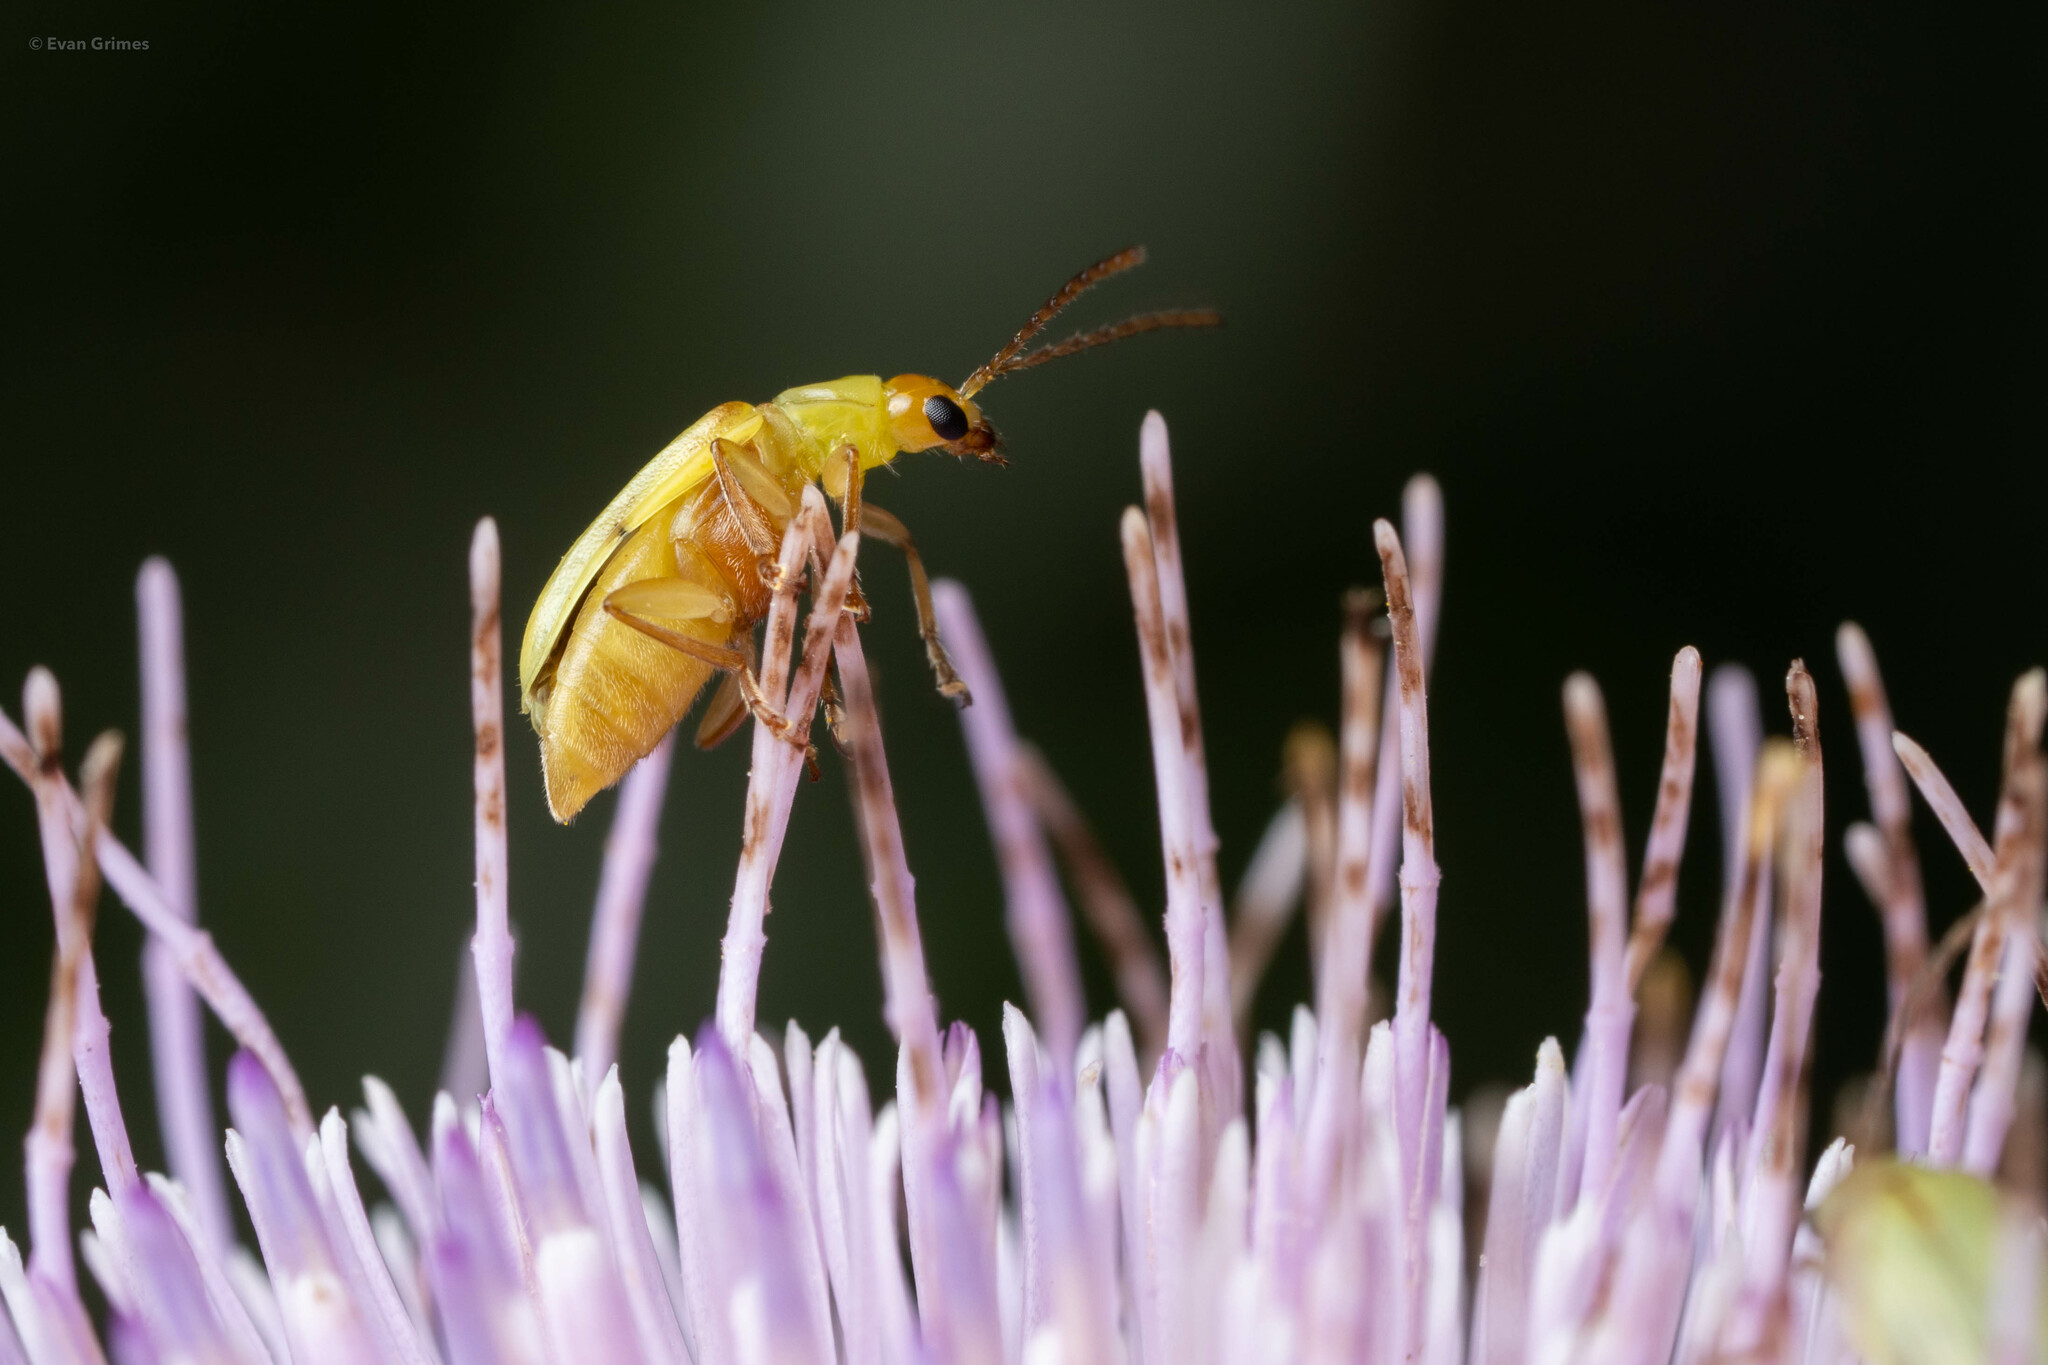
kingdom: Animalia
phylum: Arthropoda
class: Insecta
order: Coleoptera
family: Chrysomelidae
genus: Diabrotica
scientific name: Diabrotica barberi
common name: Northern corn rootworm
